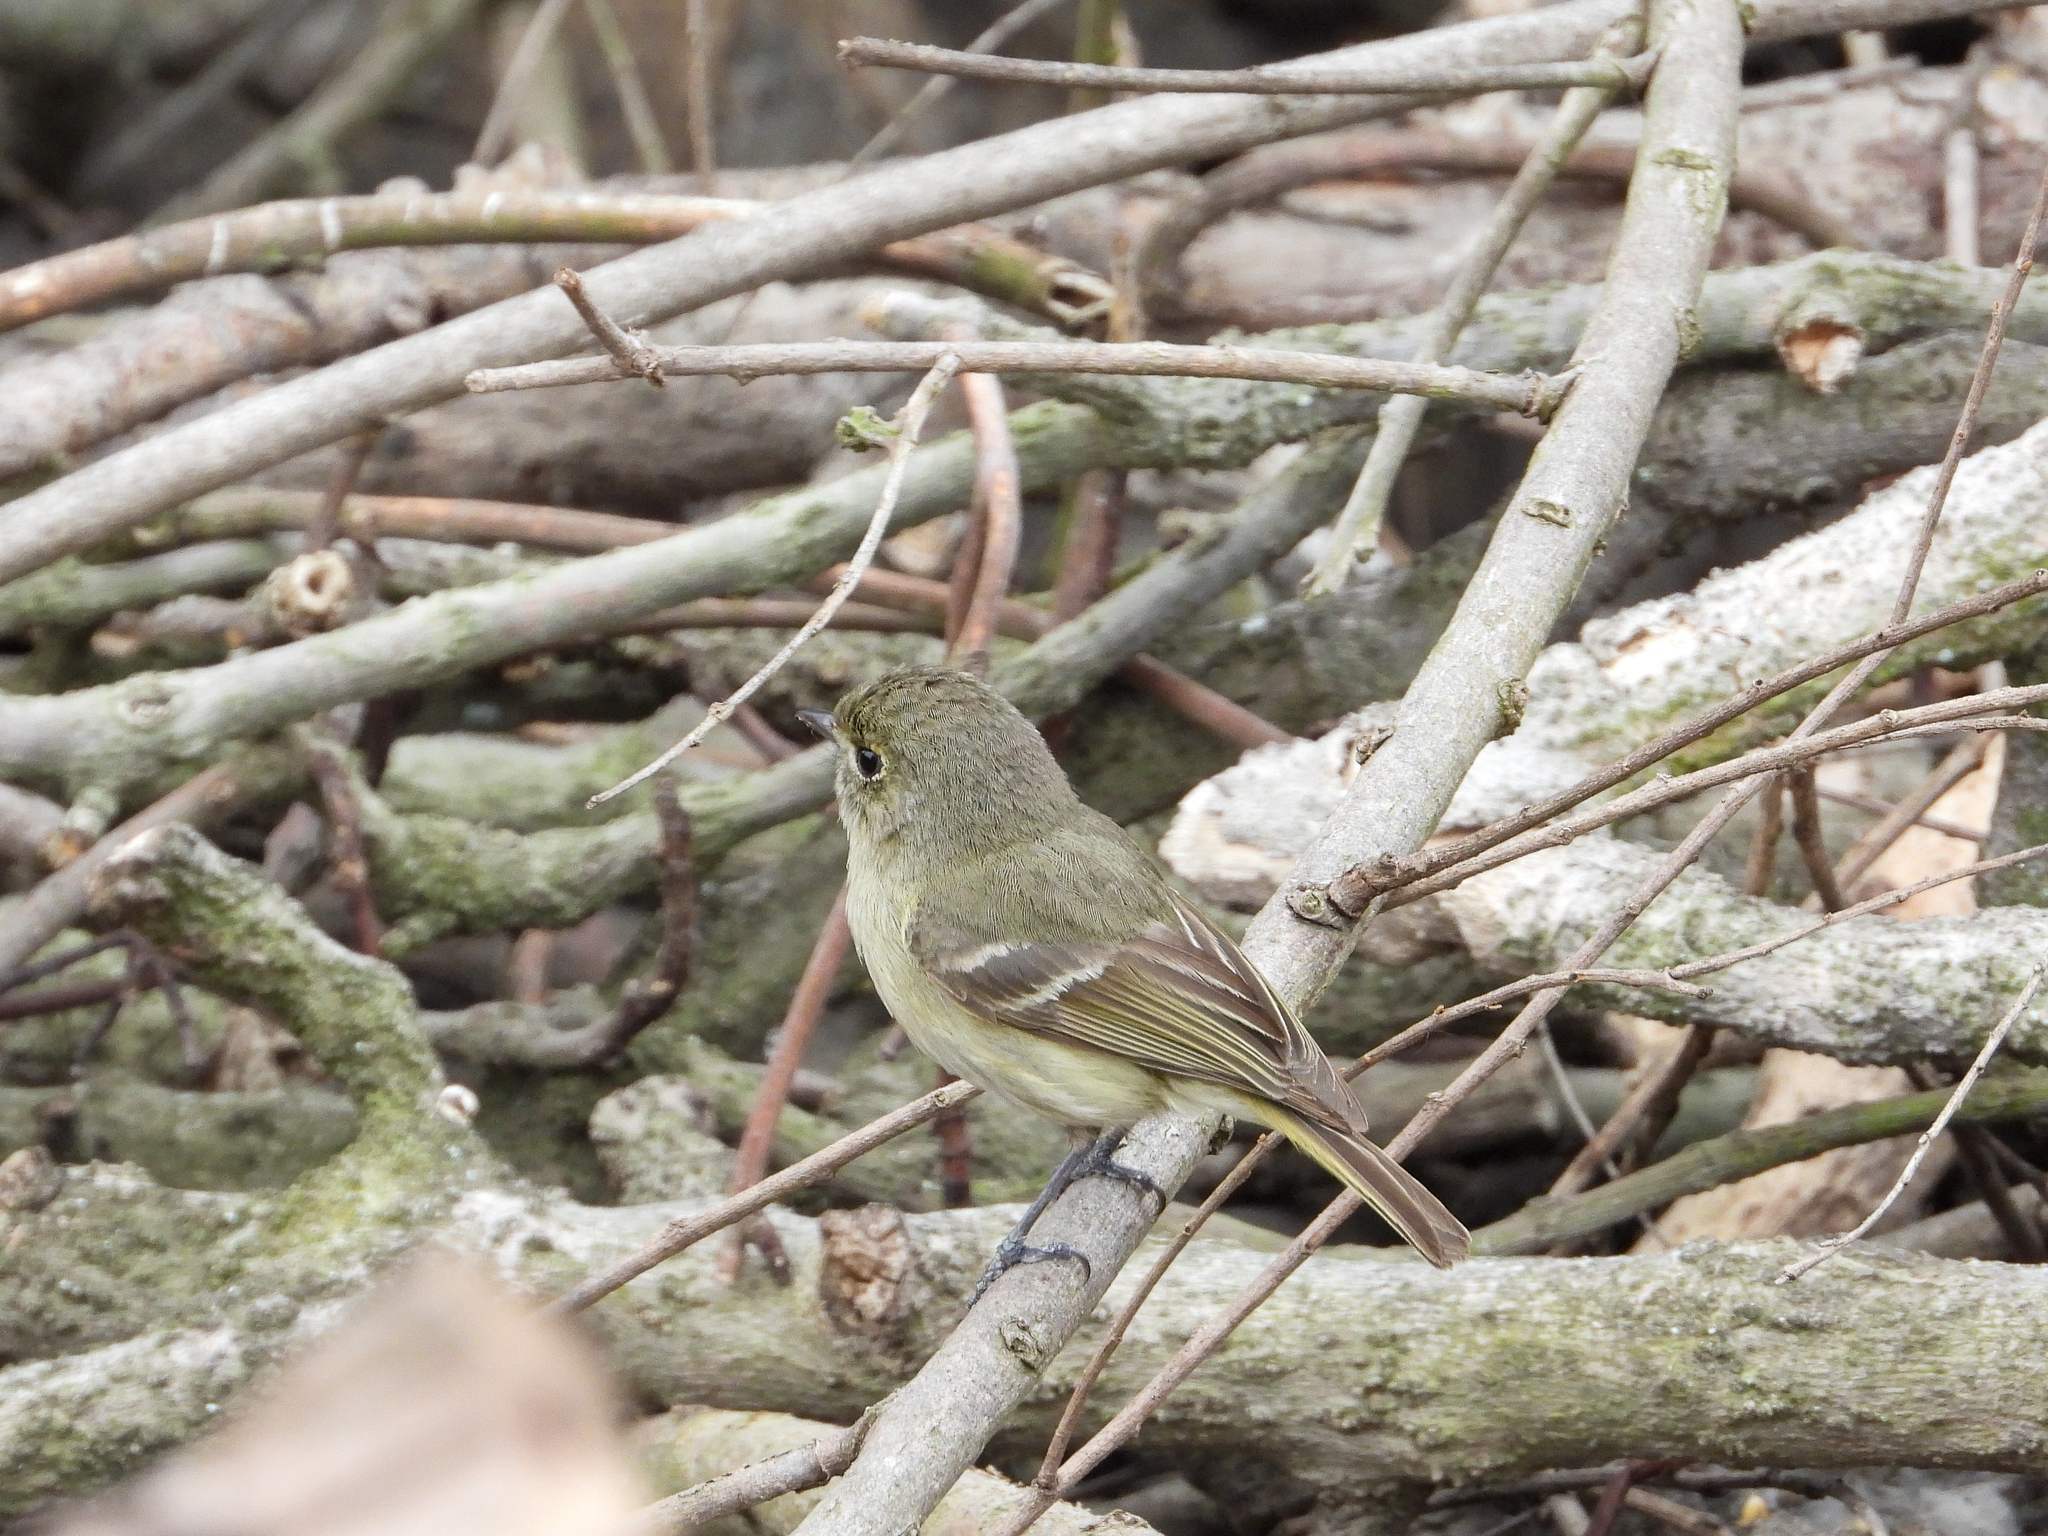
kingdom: Animalia
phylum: Chordata
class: Aves
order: Passeriformes
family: Vireonidae
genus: Vireo
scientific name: Vireo huttoni
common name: Hutton's vireo
